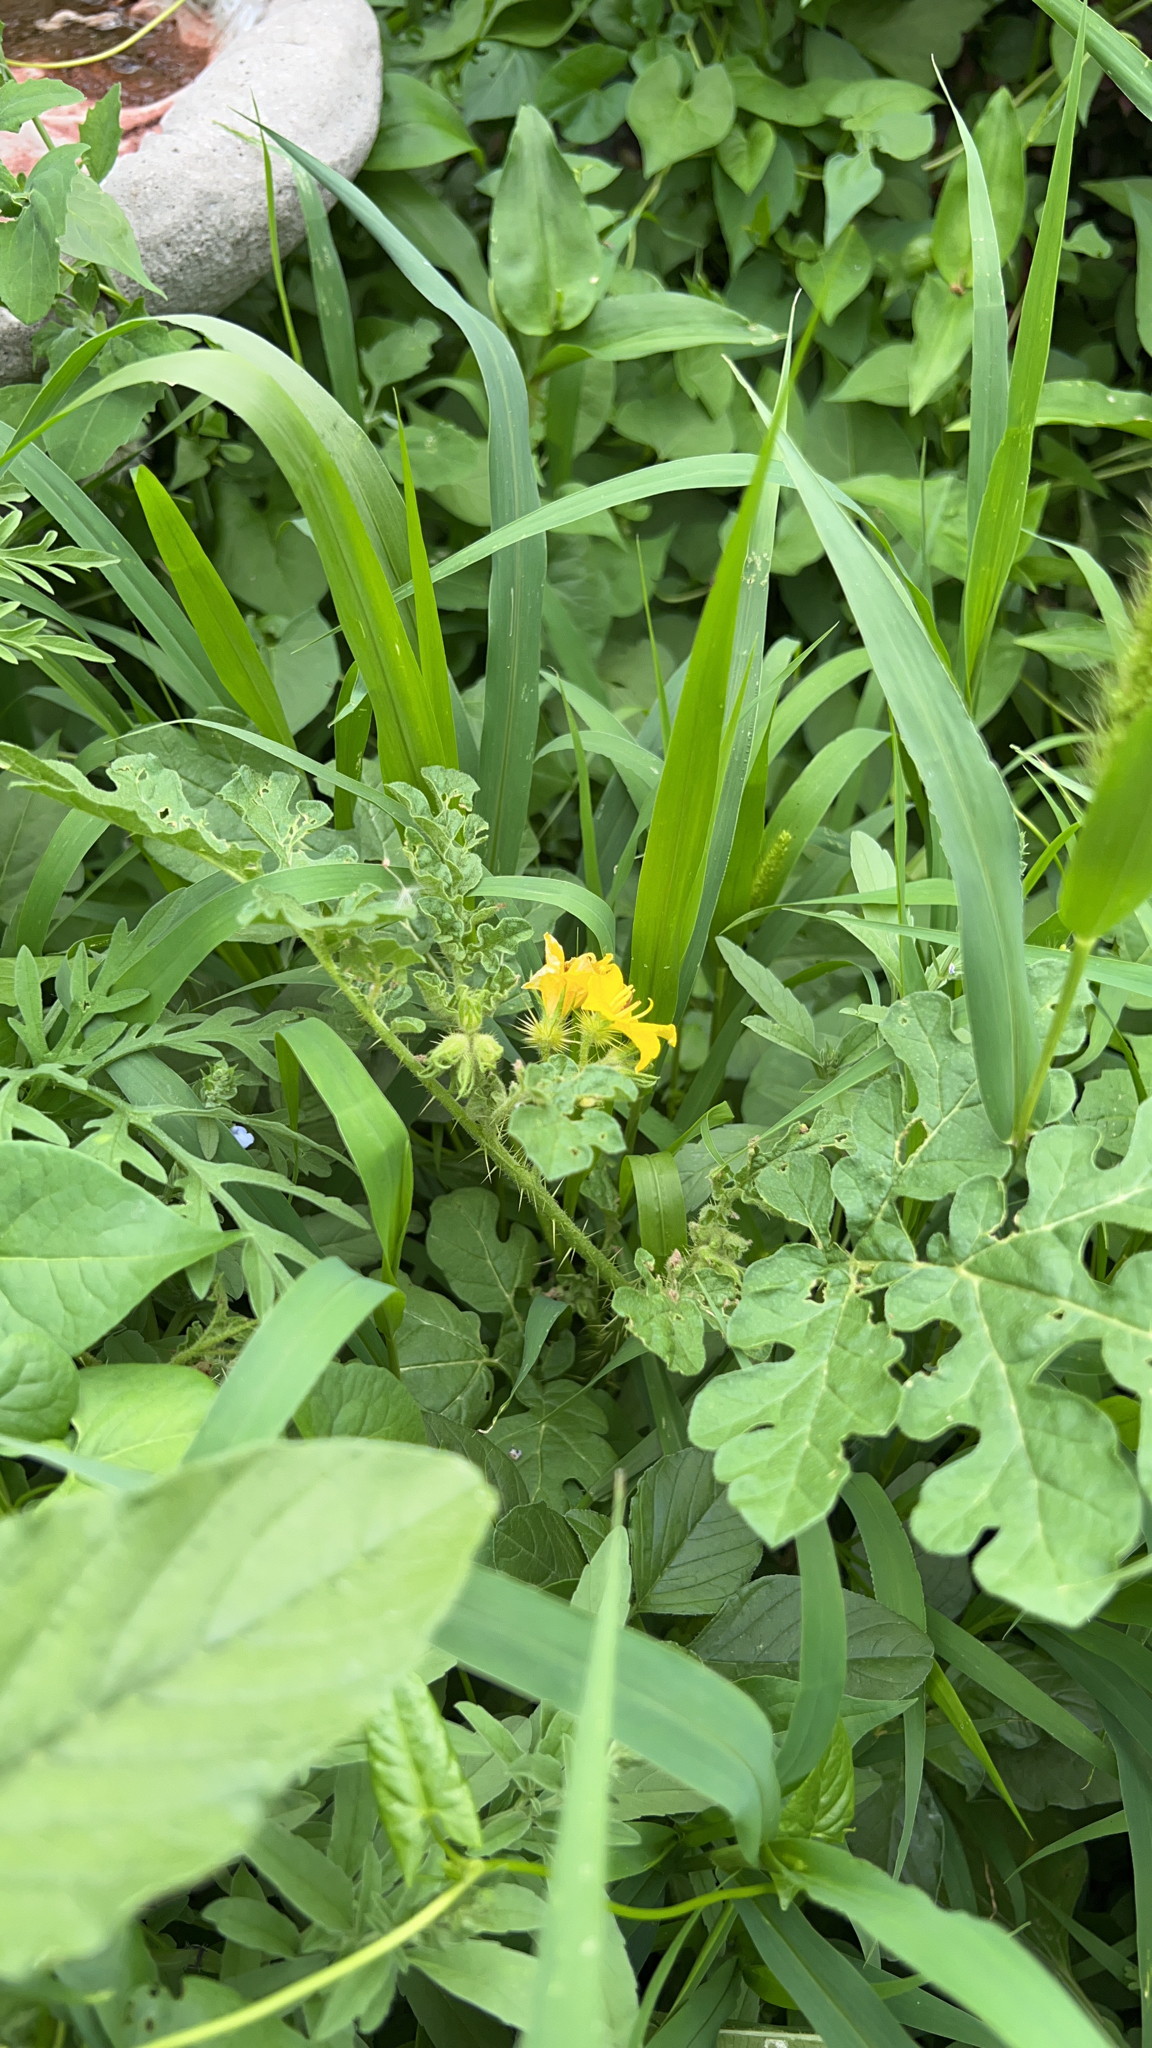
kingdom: Plantae
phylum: Tracheophyta
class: Magnoliopsida
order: Solanales
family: Solanaceae
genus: Solanum
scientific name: Solanum angustifolium
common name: Buffalobur nightshade
